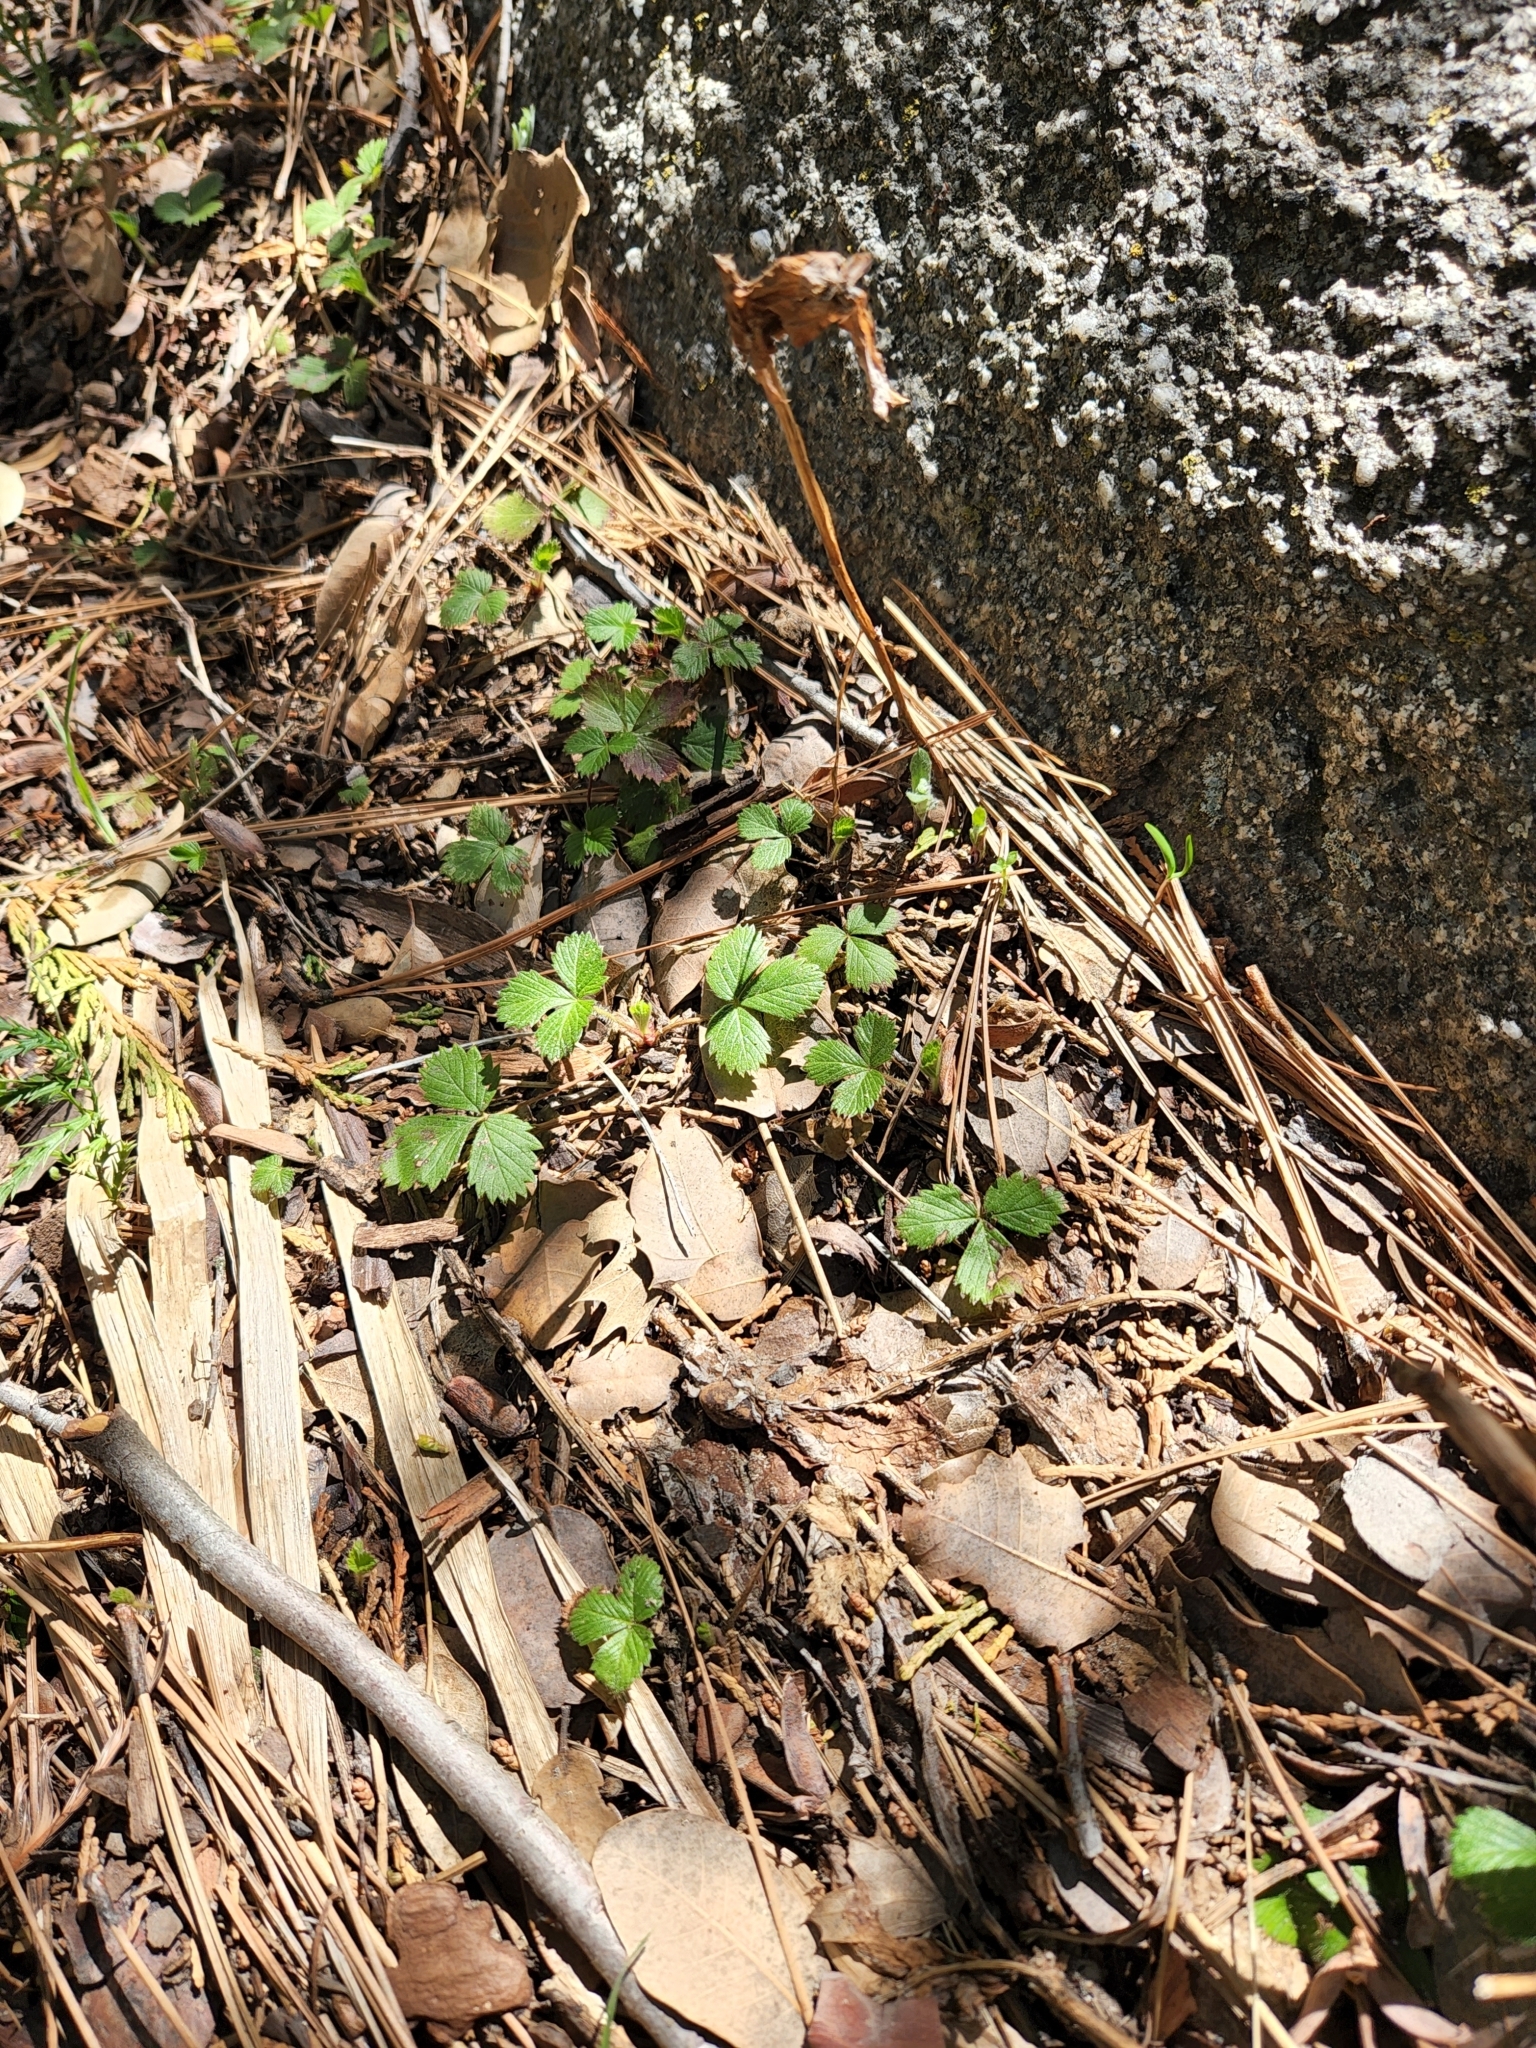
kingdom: Plantae
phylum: Tracheophyta
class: Magnoliopsida
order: Rosales
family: Rosaceae
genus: Fragaria
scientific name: Fragaria vesca
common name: Wild strawberry
